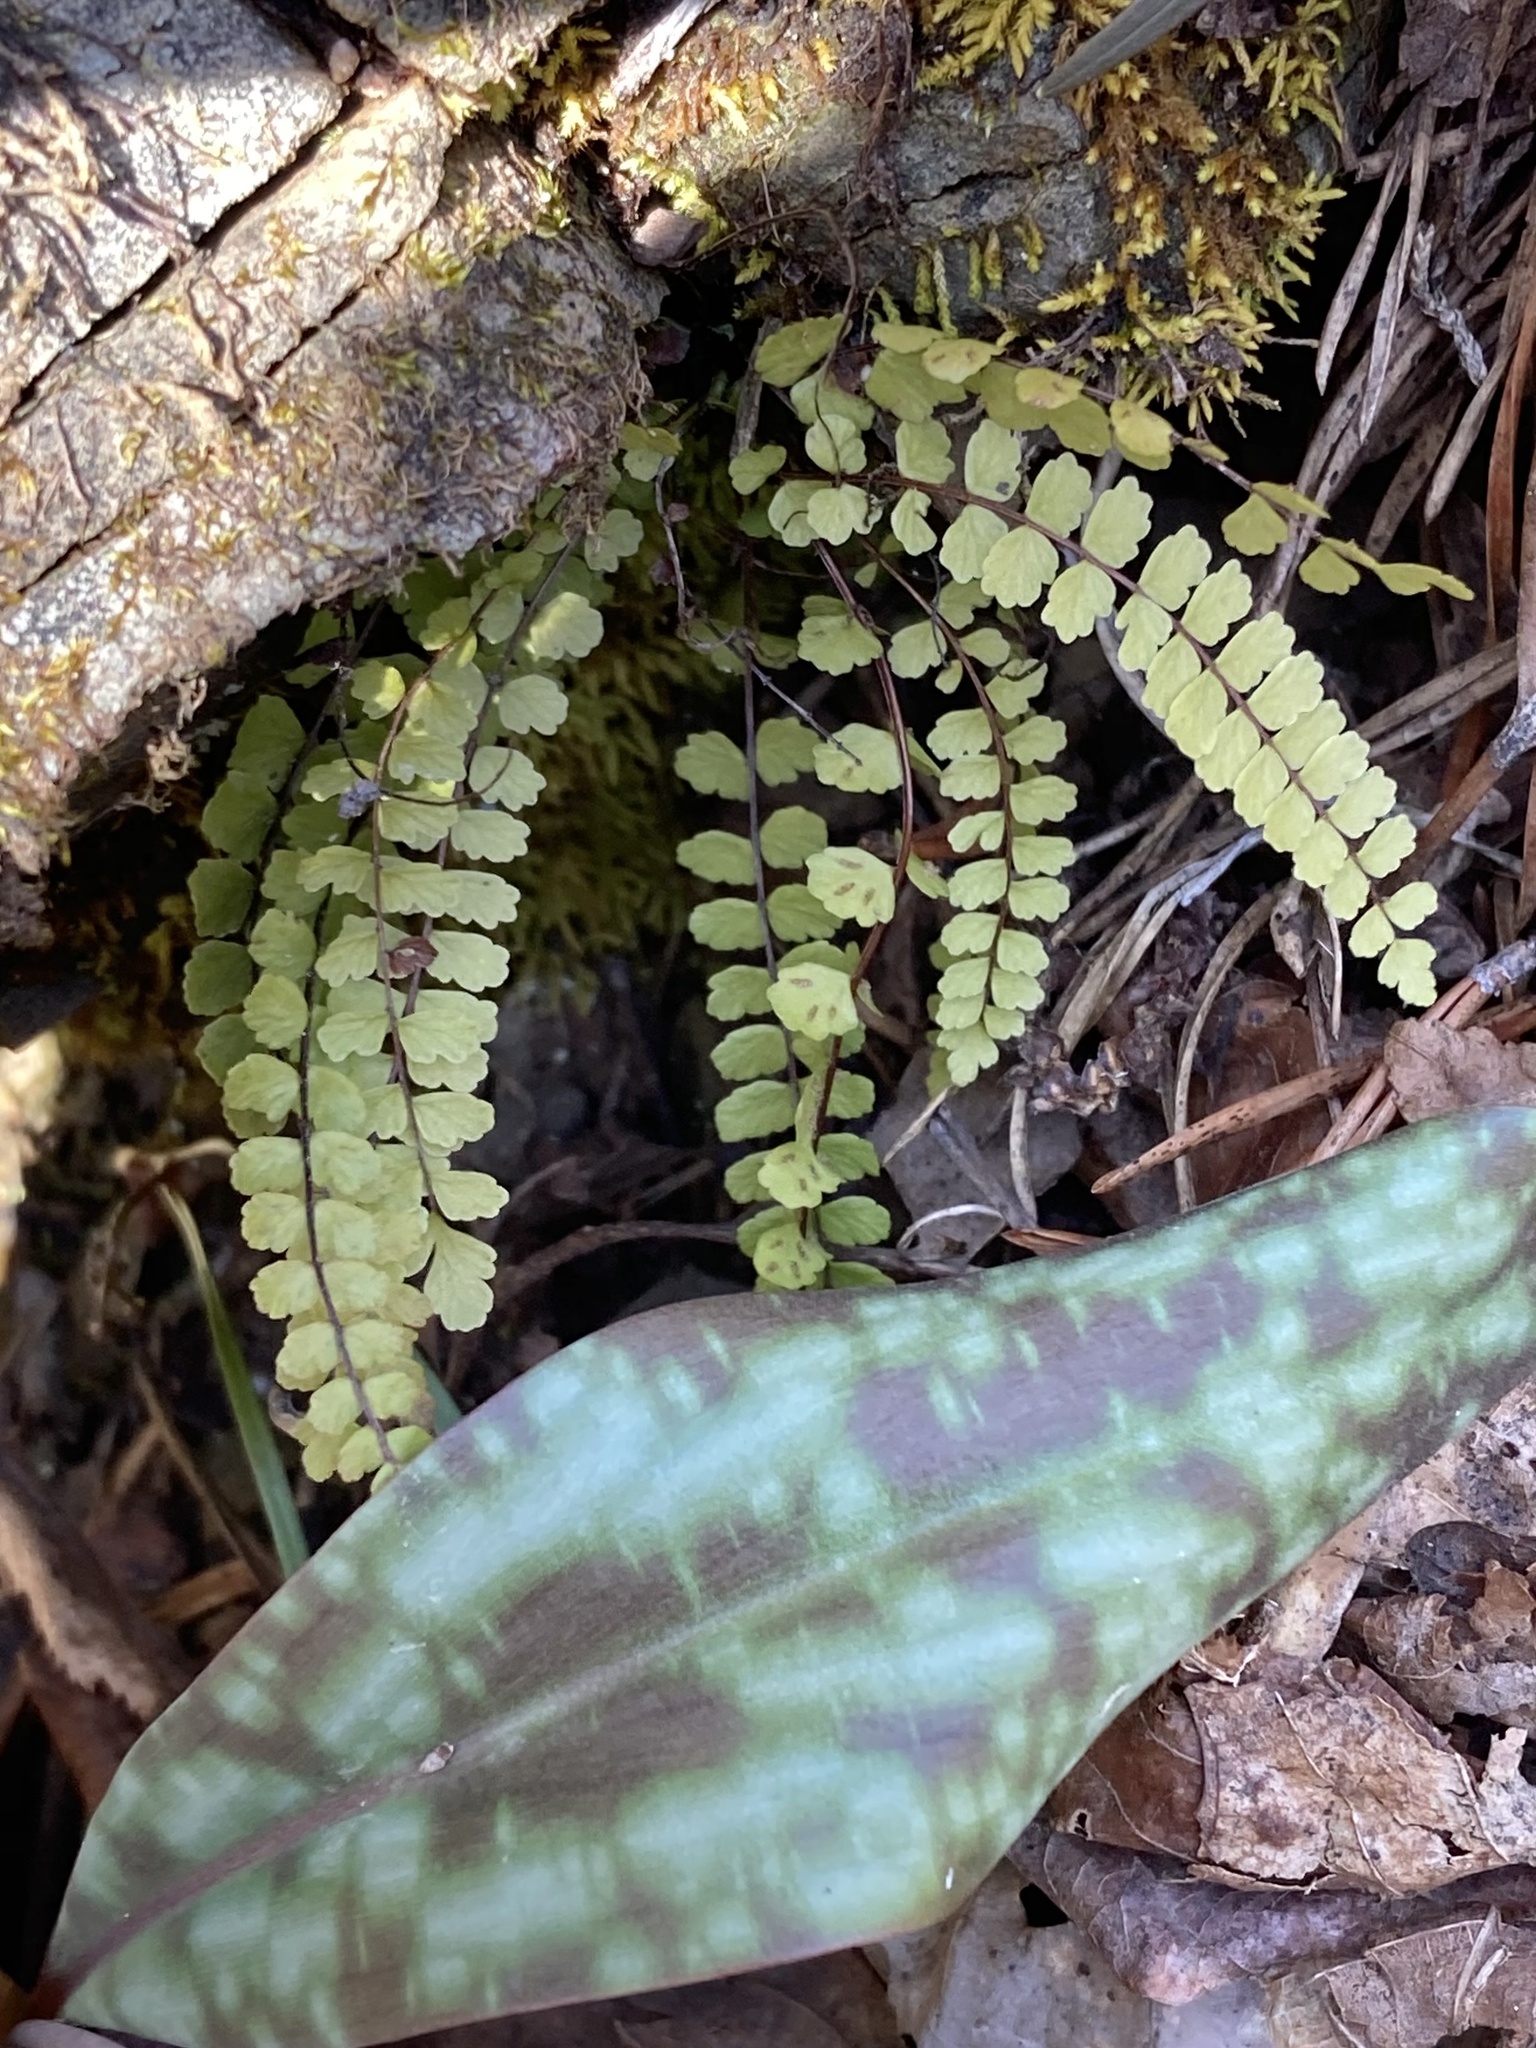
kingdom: Plantae
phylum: Tracheophyta
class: Polypodiopsida
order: Polypodiales
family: Aspleniaceae
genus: Asplenium
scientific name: Asplenium trichomanes
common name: Maidenhair spleenwort
